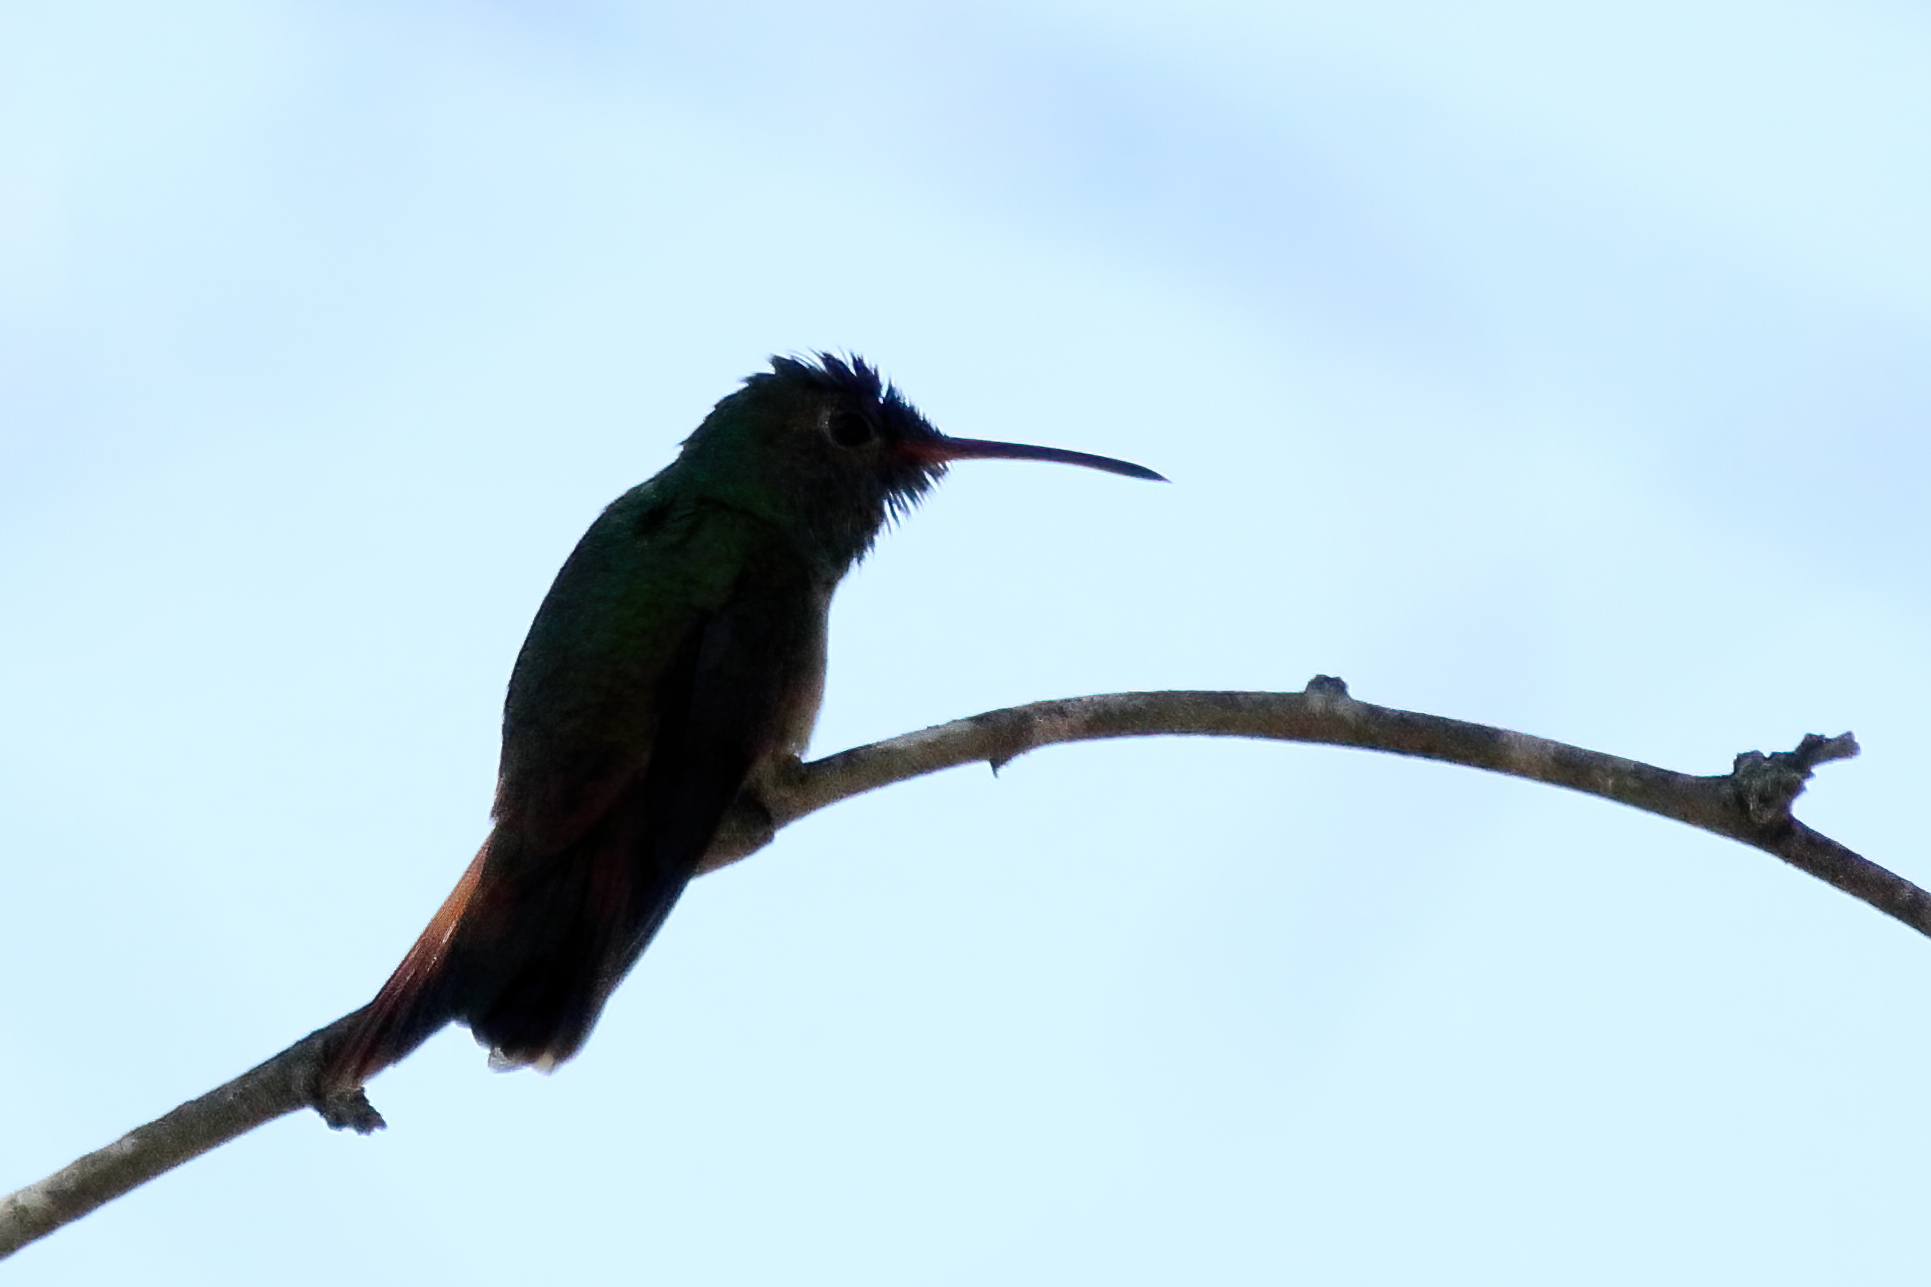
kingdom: Animalia
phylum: Chordata
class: Aves
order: Apodiformes
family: Trochilidae
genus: Amazilia
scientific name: Amazilia yucatanensis
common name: Buff-bellied hummingbird
